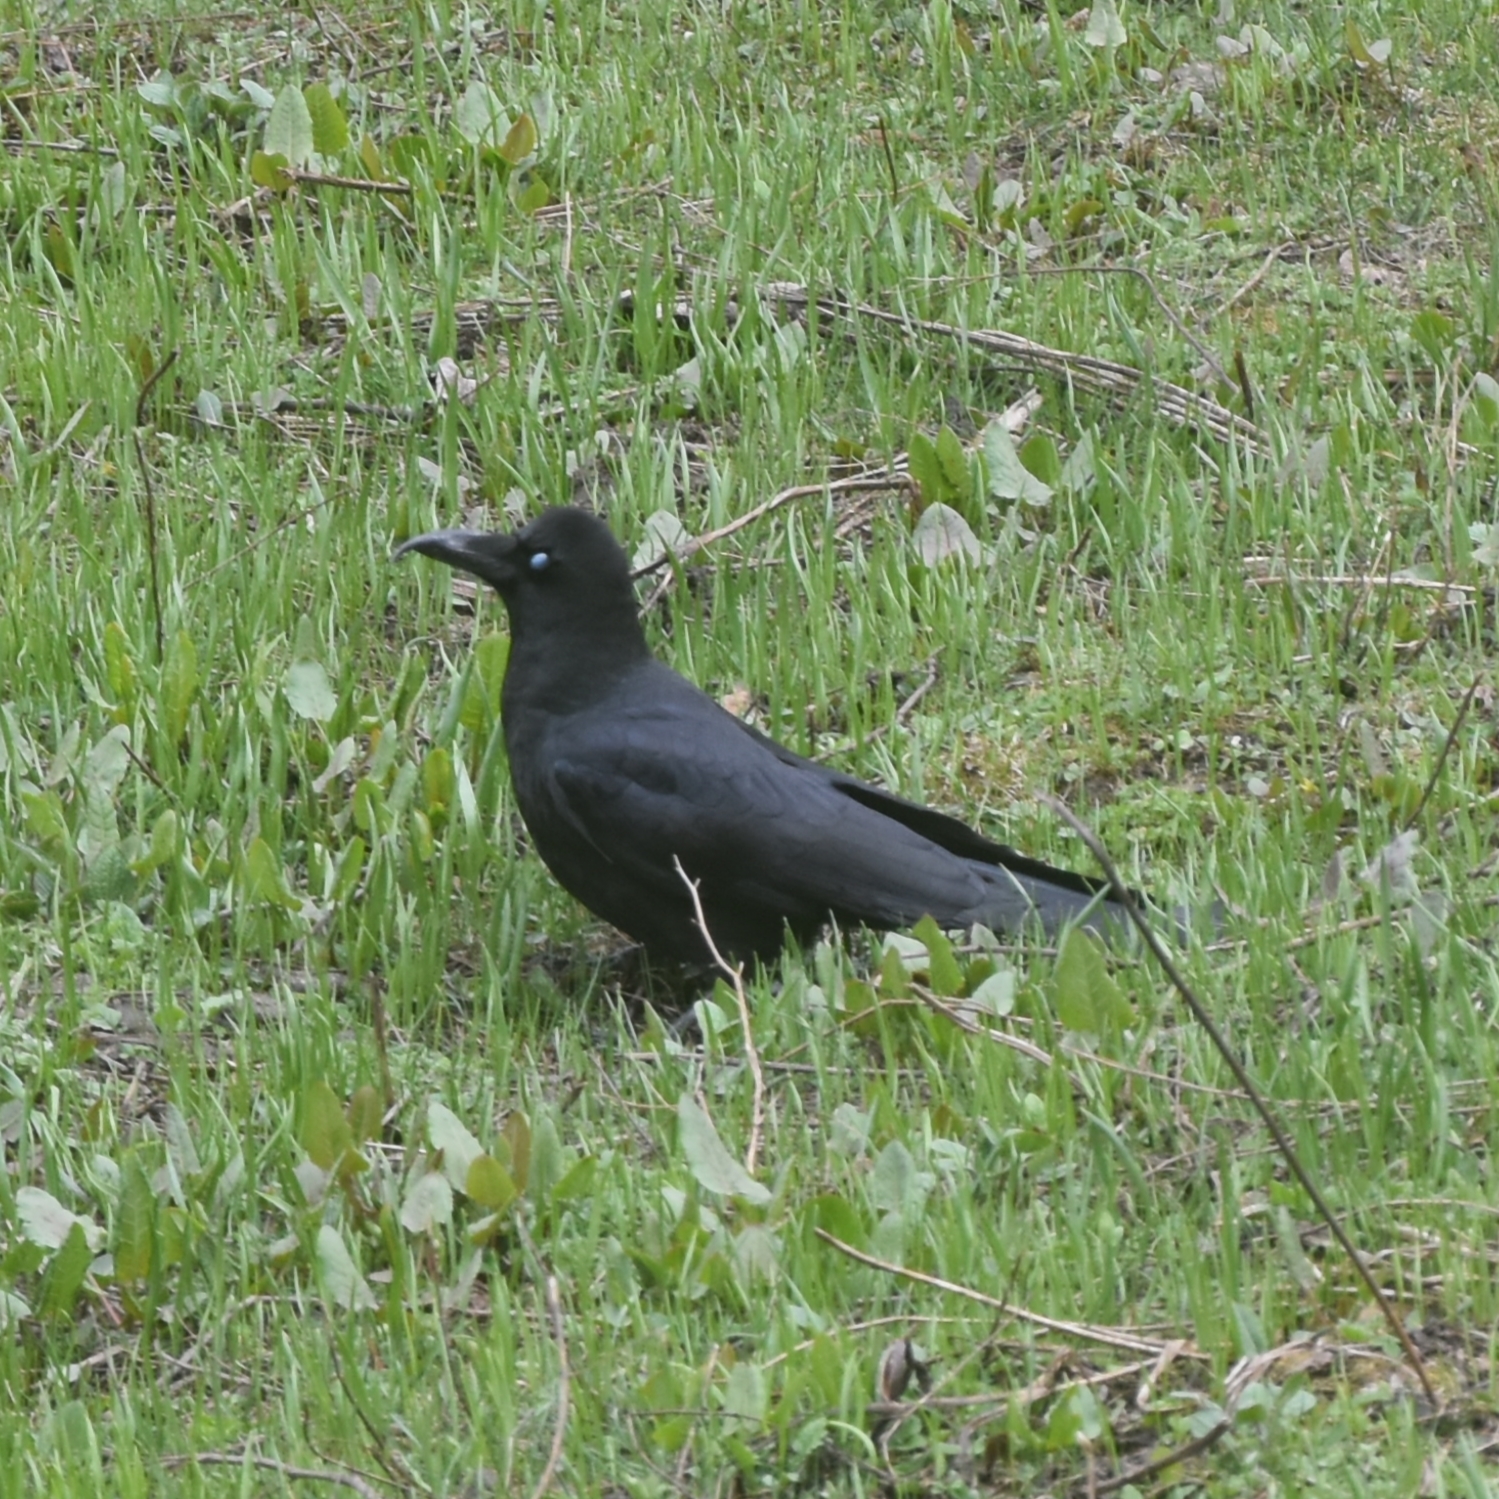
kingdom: Animalia
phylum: Chordata
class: Aves
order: Passeriformes
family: Corvidae
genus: Corvus
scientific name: Corvus macrorhynchos
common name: Large-billed crow
